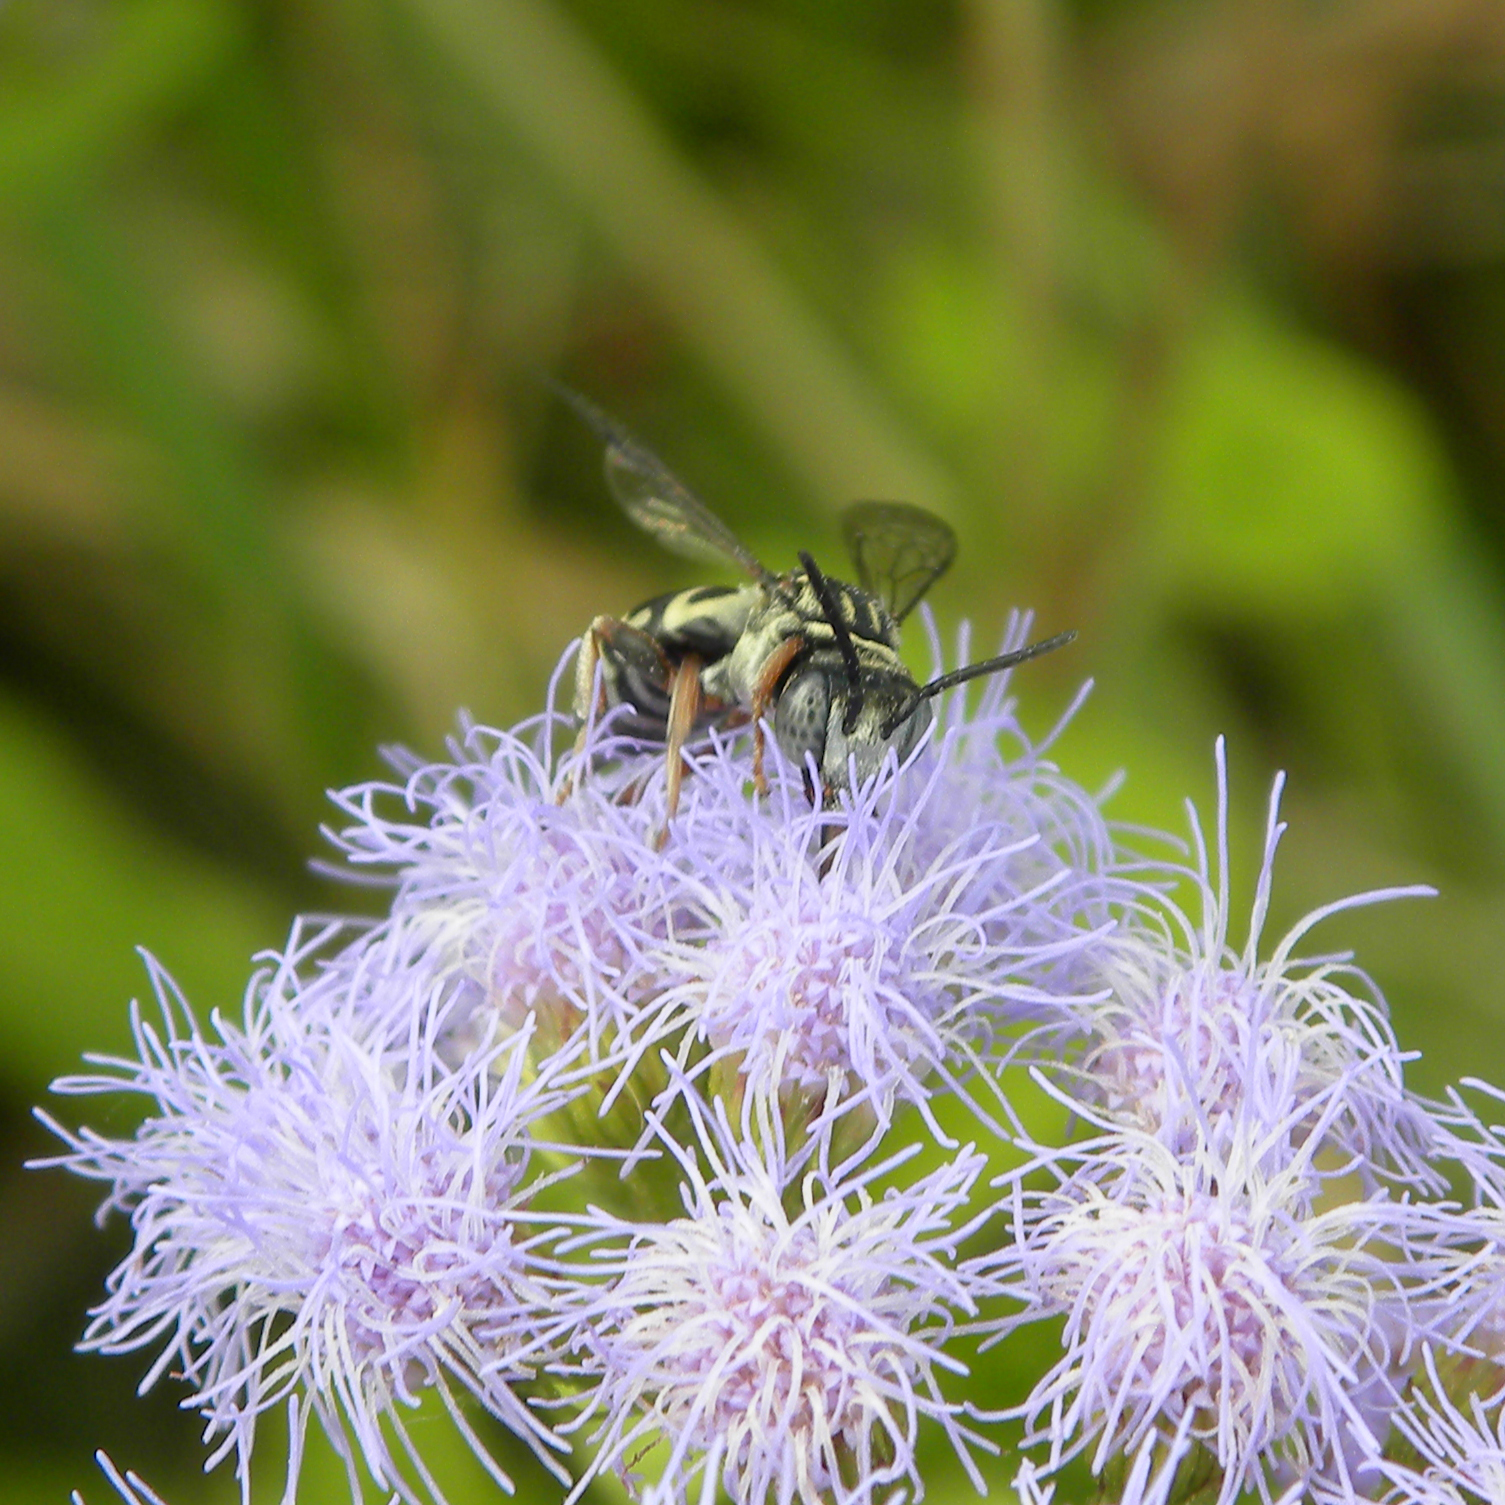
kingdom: Animalia
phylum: Arthropoda
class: Insecta
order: Hymenoptera
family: Apidae
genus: Triepeolus
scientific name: Triepeolus
